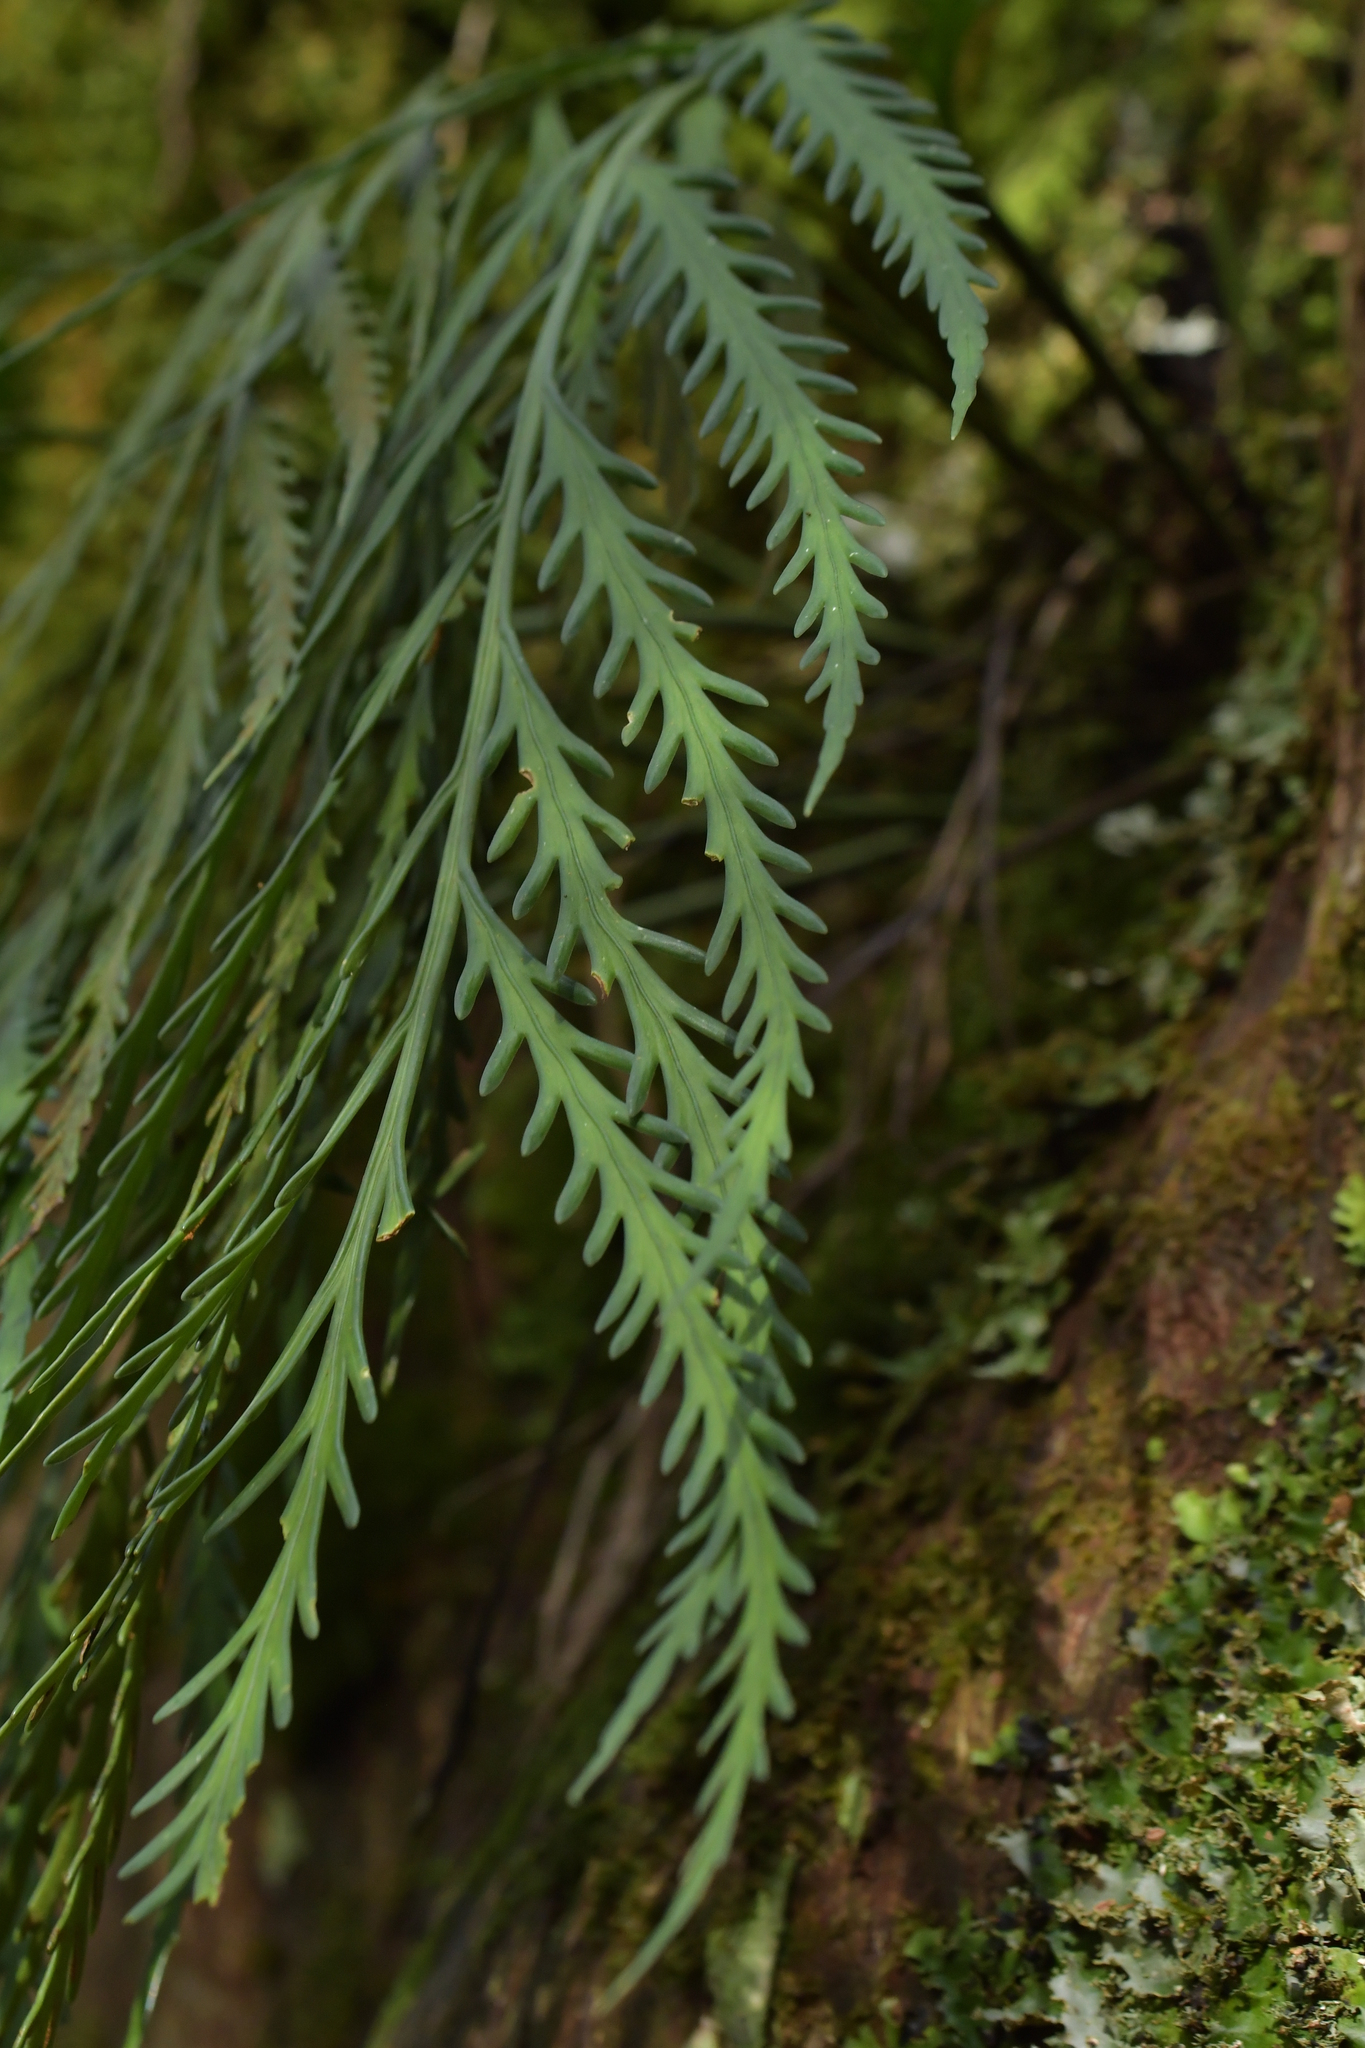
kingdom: Plantae
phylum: Tracheophyta
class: Polypodiopsida
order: Polypodiales
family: Aspleniaceae
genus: Asplenium
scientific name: Asplenium flaccidum
